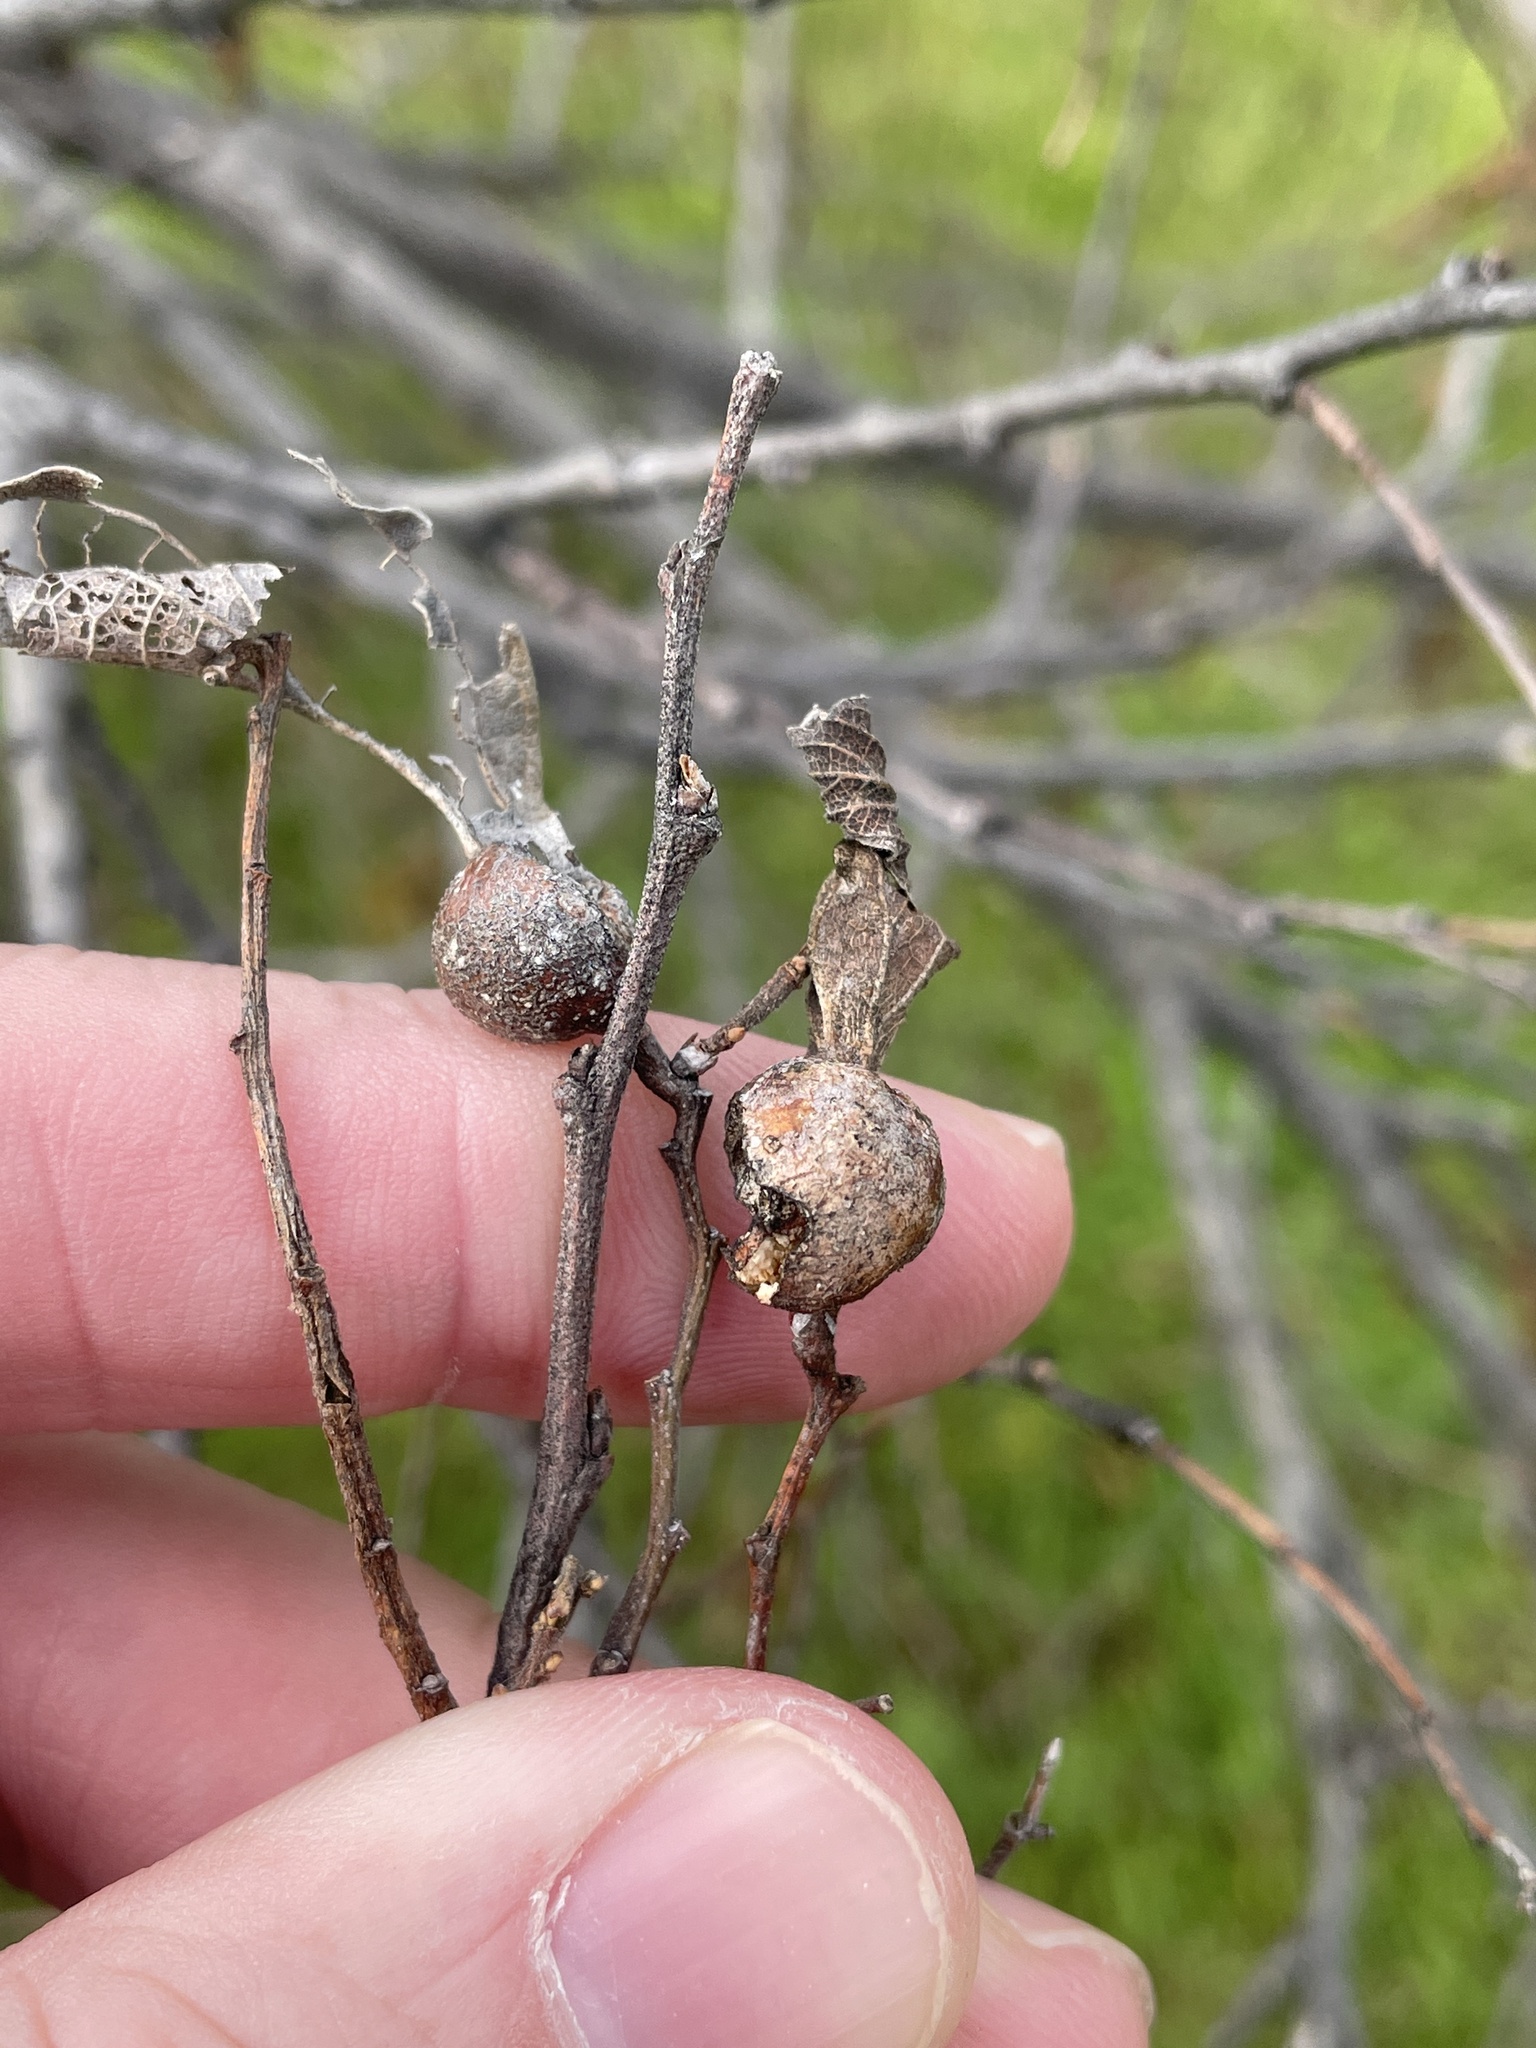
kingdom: Animalia
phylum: Arthropoda
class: Insecta
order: Hemiptera
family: Aphalaridae
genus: Pachypsylla
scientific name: Pachypsylla venusta
